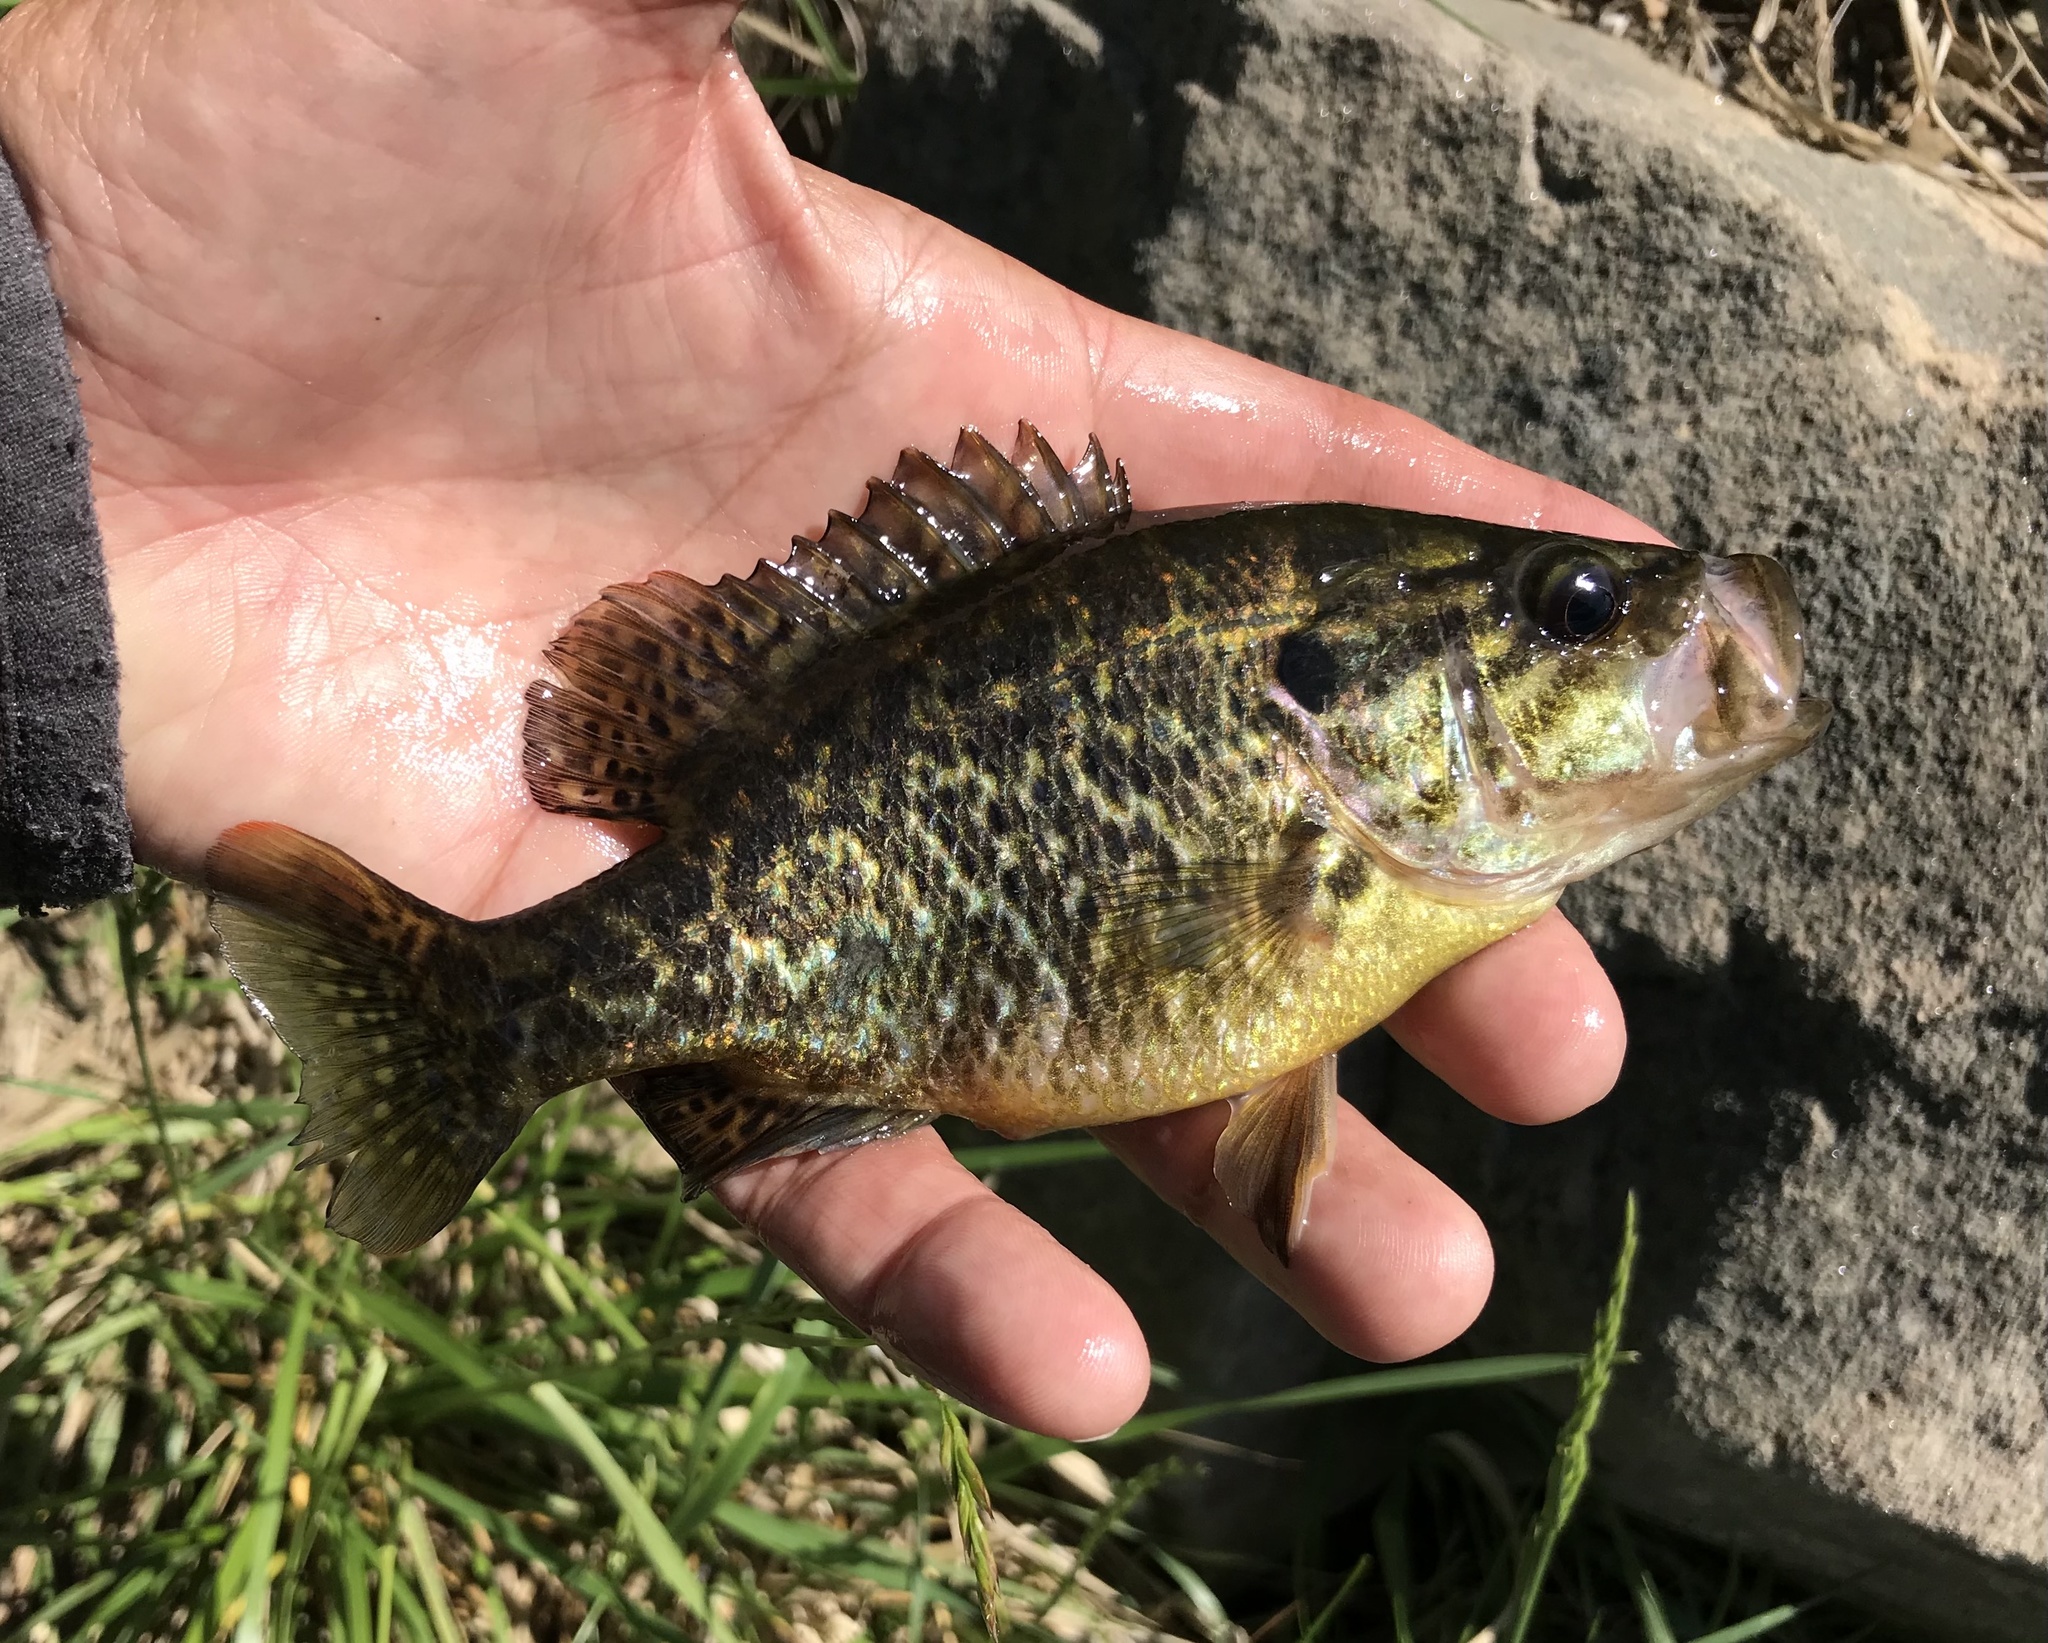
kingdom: Animalia
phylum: Chordata
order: Perciformes
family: Centrarchidae
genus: Lepomis
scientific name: Lepomis gulosus
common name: Warmouth
